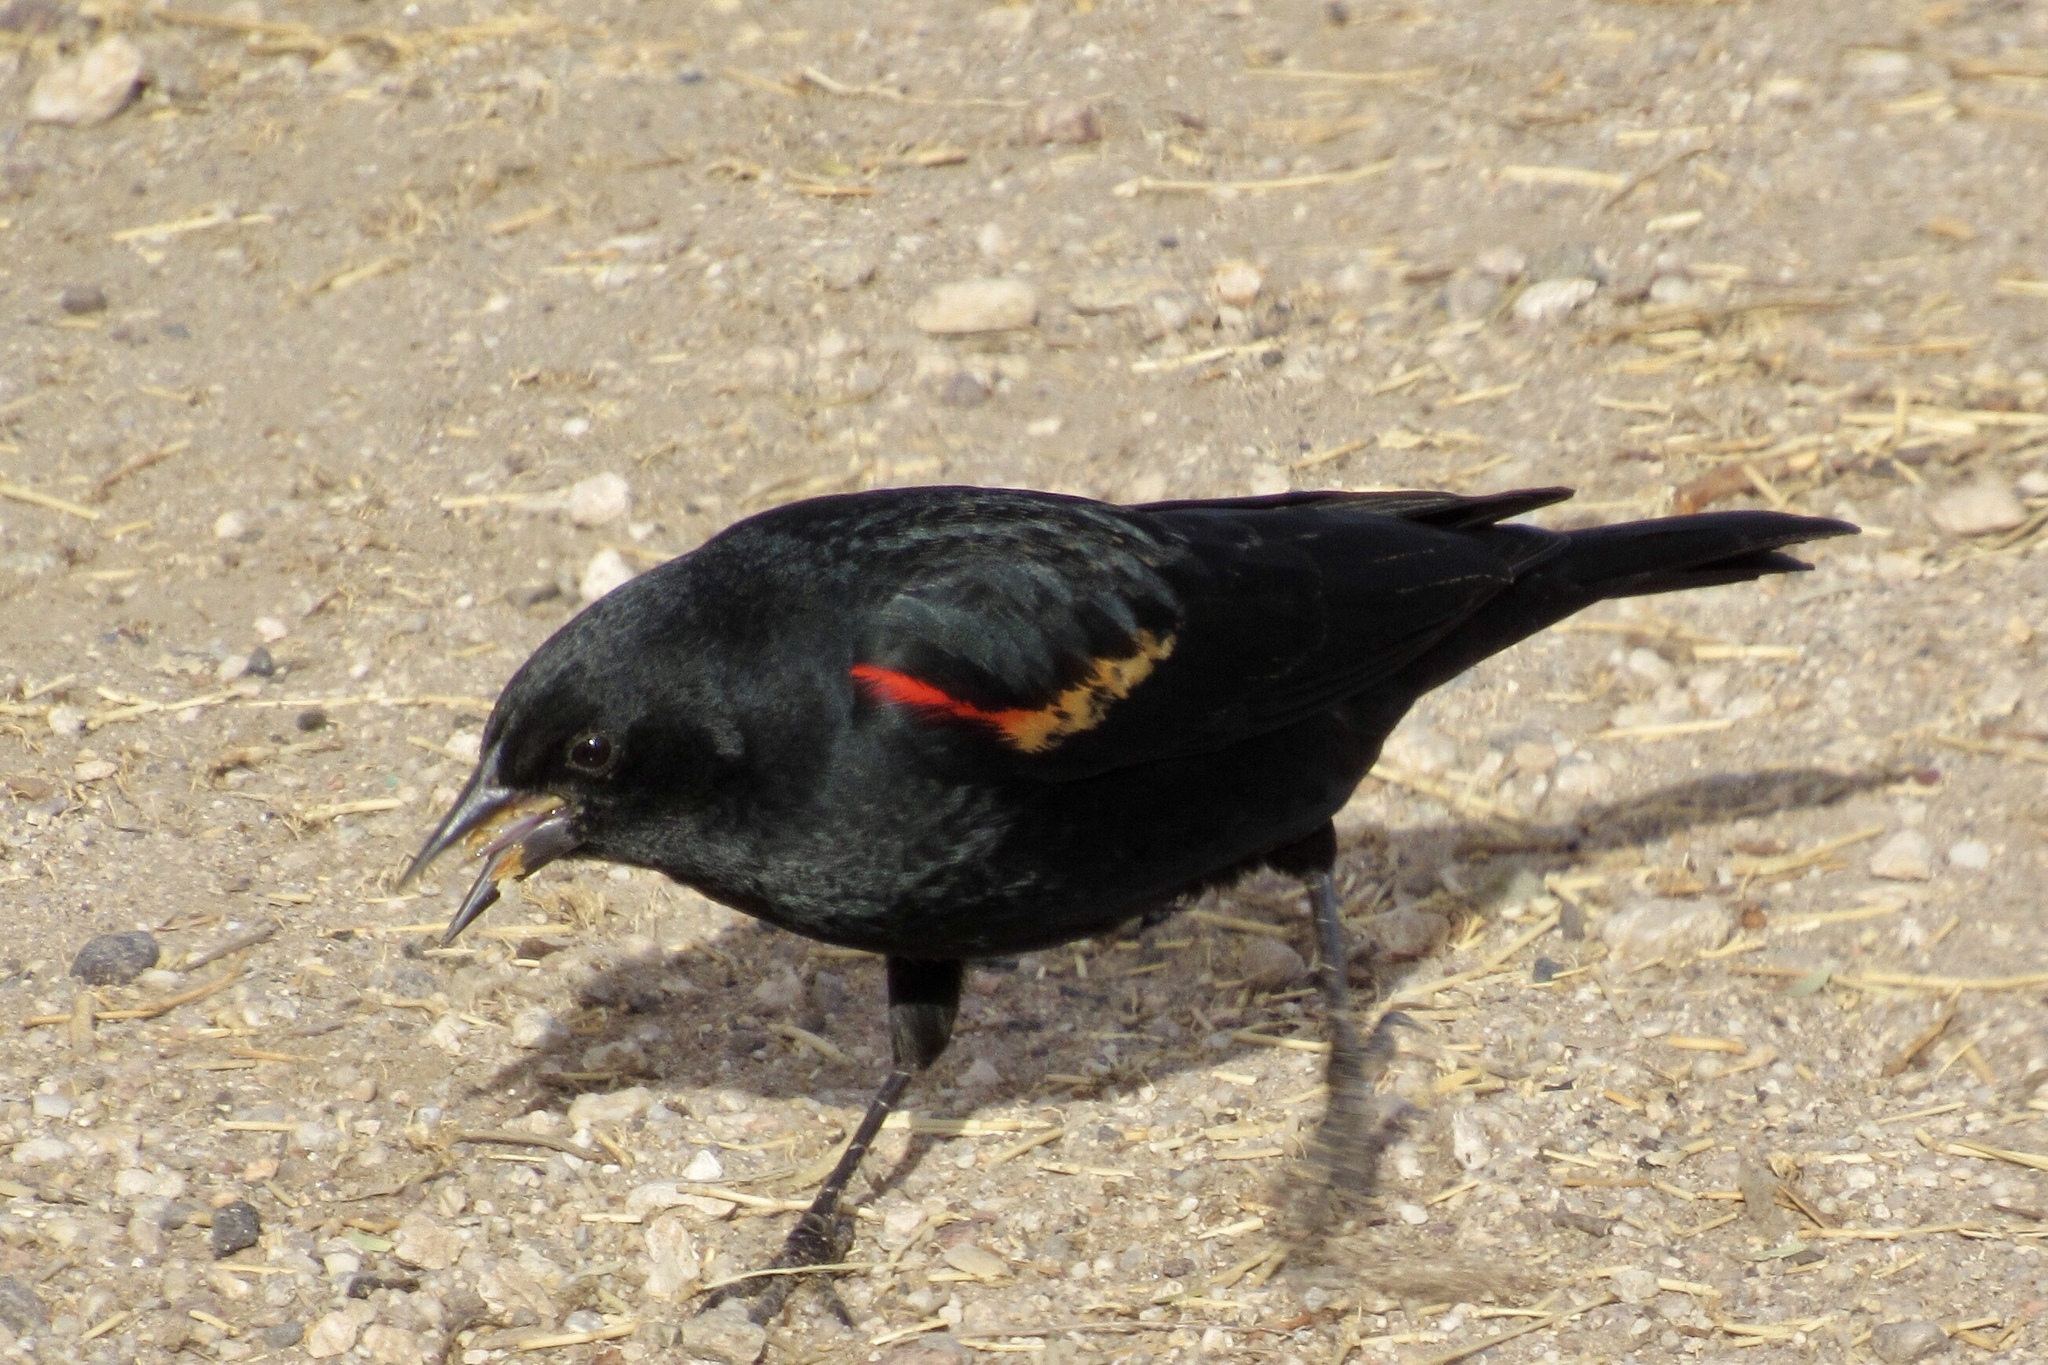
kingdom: Animalia
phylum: Chordata
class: Aves
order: Passeriformes
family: Icteridae
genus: Agelaius
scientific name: Agelaius phoeniceus
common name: Red-winged blackbird
